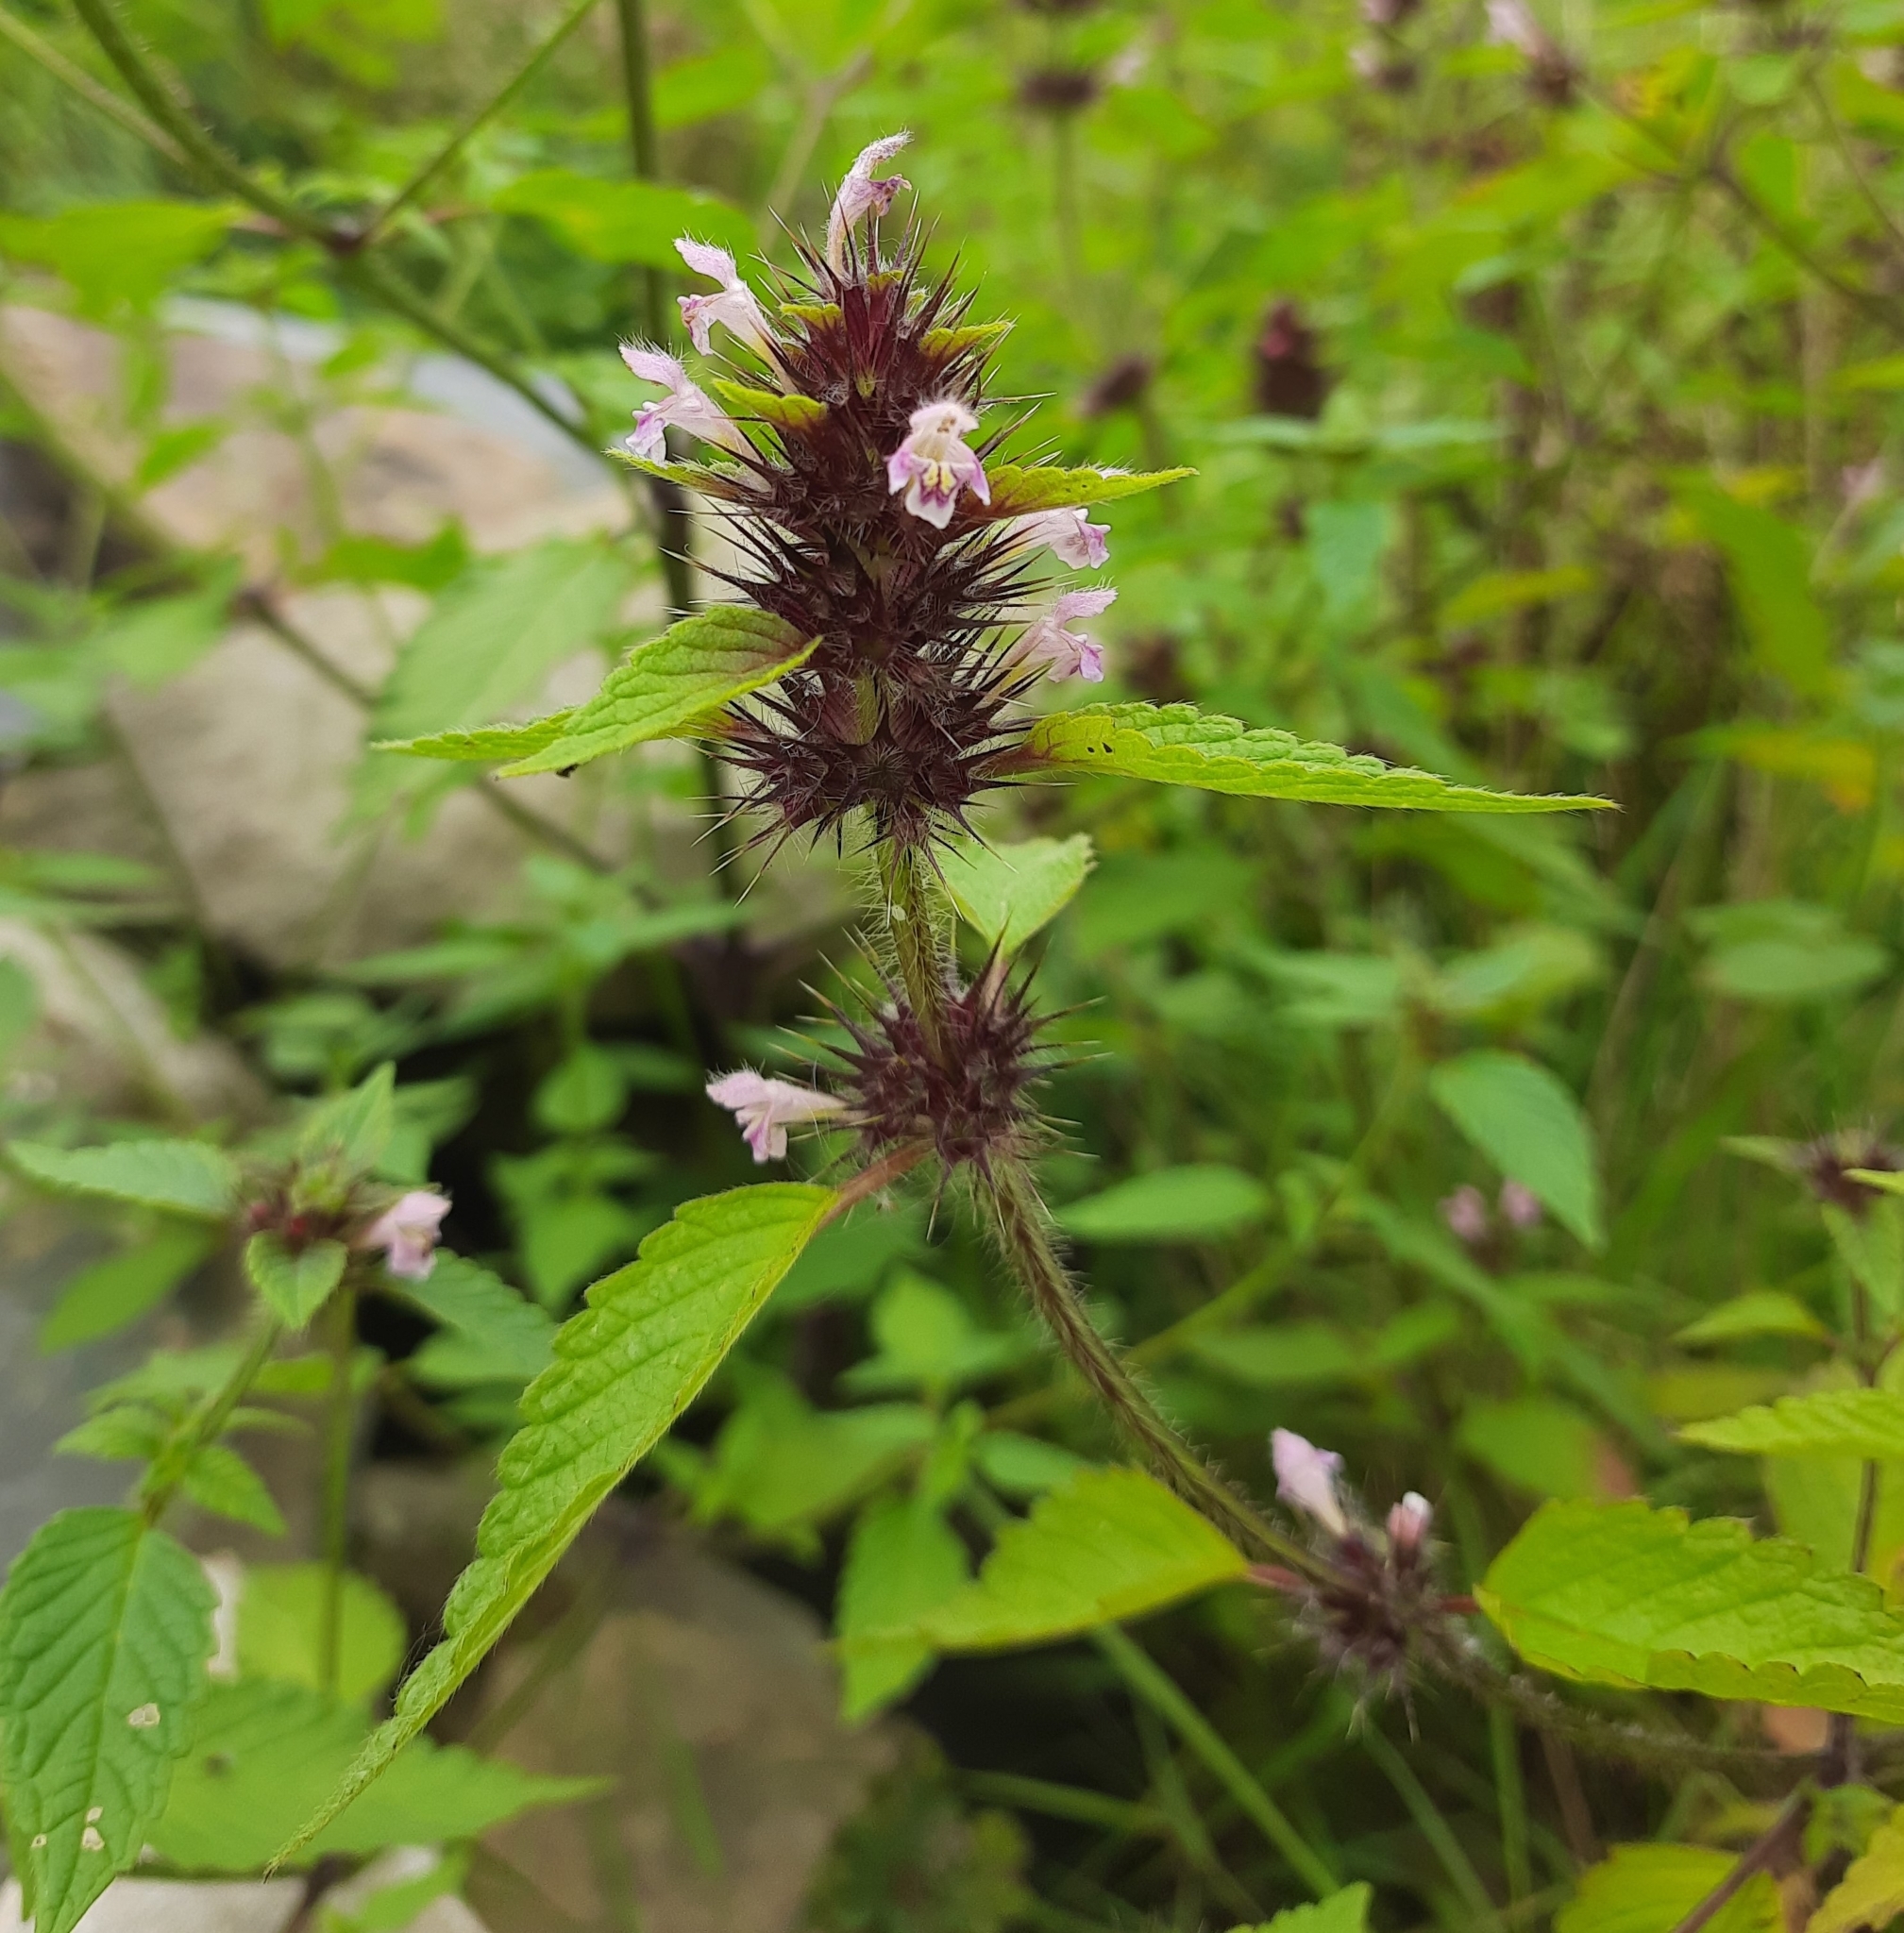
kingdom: Plantae
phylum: Tracheophyta
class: Magnoliopsida
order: Lamiales
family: Lamiaceae
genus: Galeopsis
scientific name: Galeopsis tetrahit
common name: Common hemp-nettle
